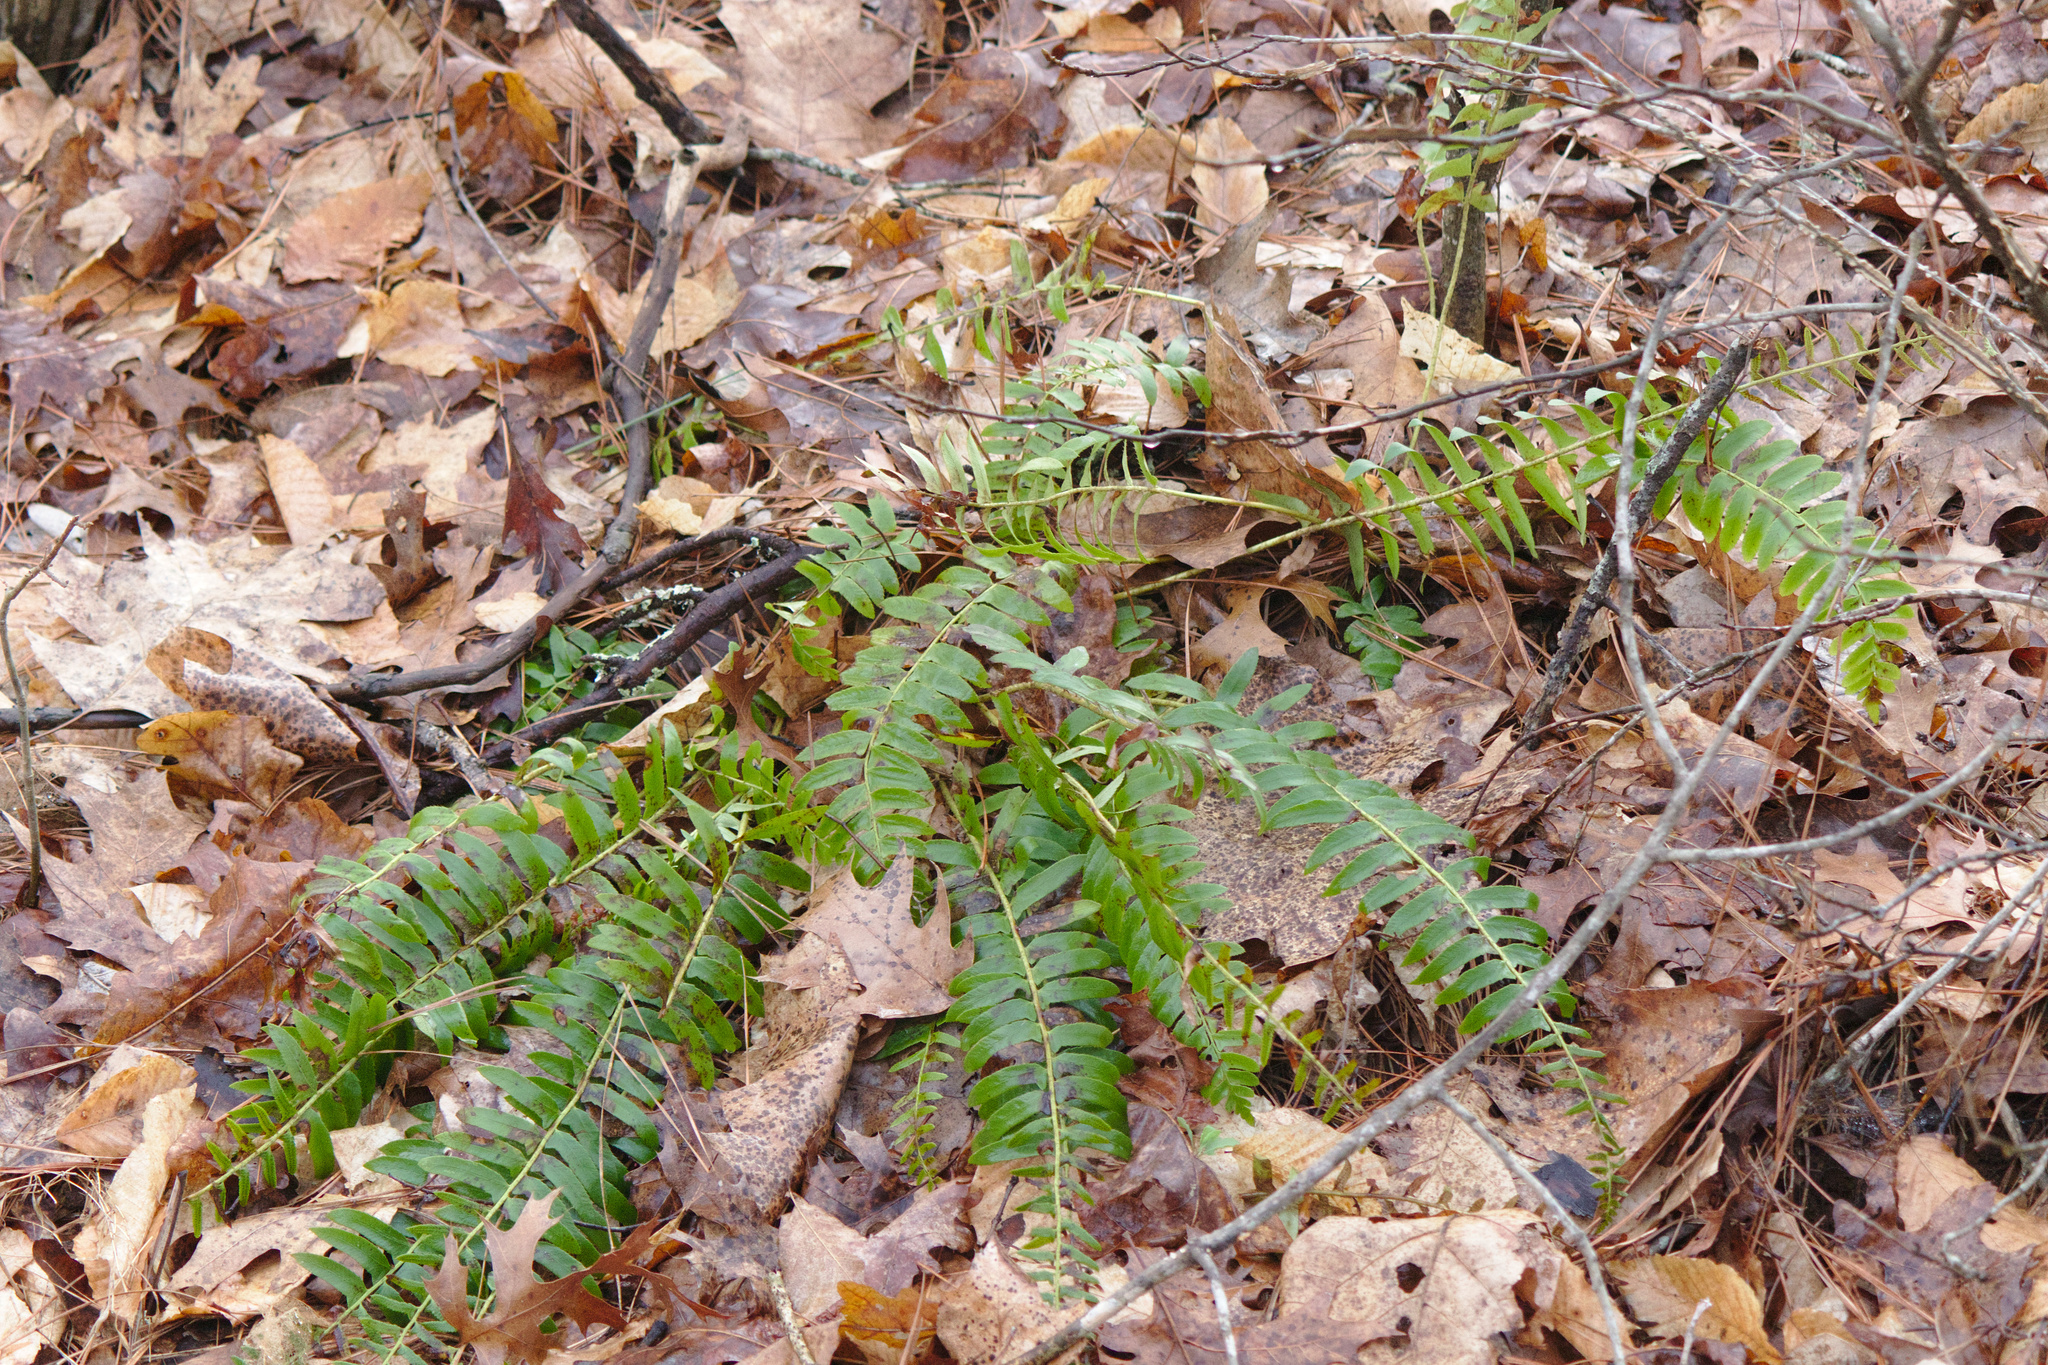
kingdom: Plantae
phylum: Tracheophyta
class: Polypodiopsida
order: Polypodiales
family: Dryopteridaceae
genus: Polystichum
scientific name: Polystichum acrostichoides
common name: Christmas fern
